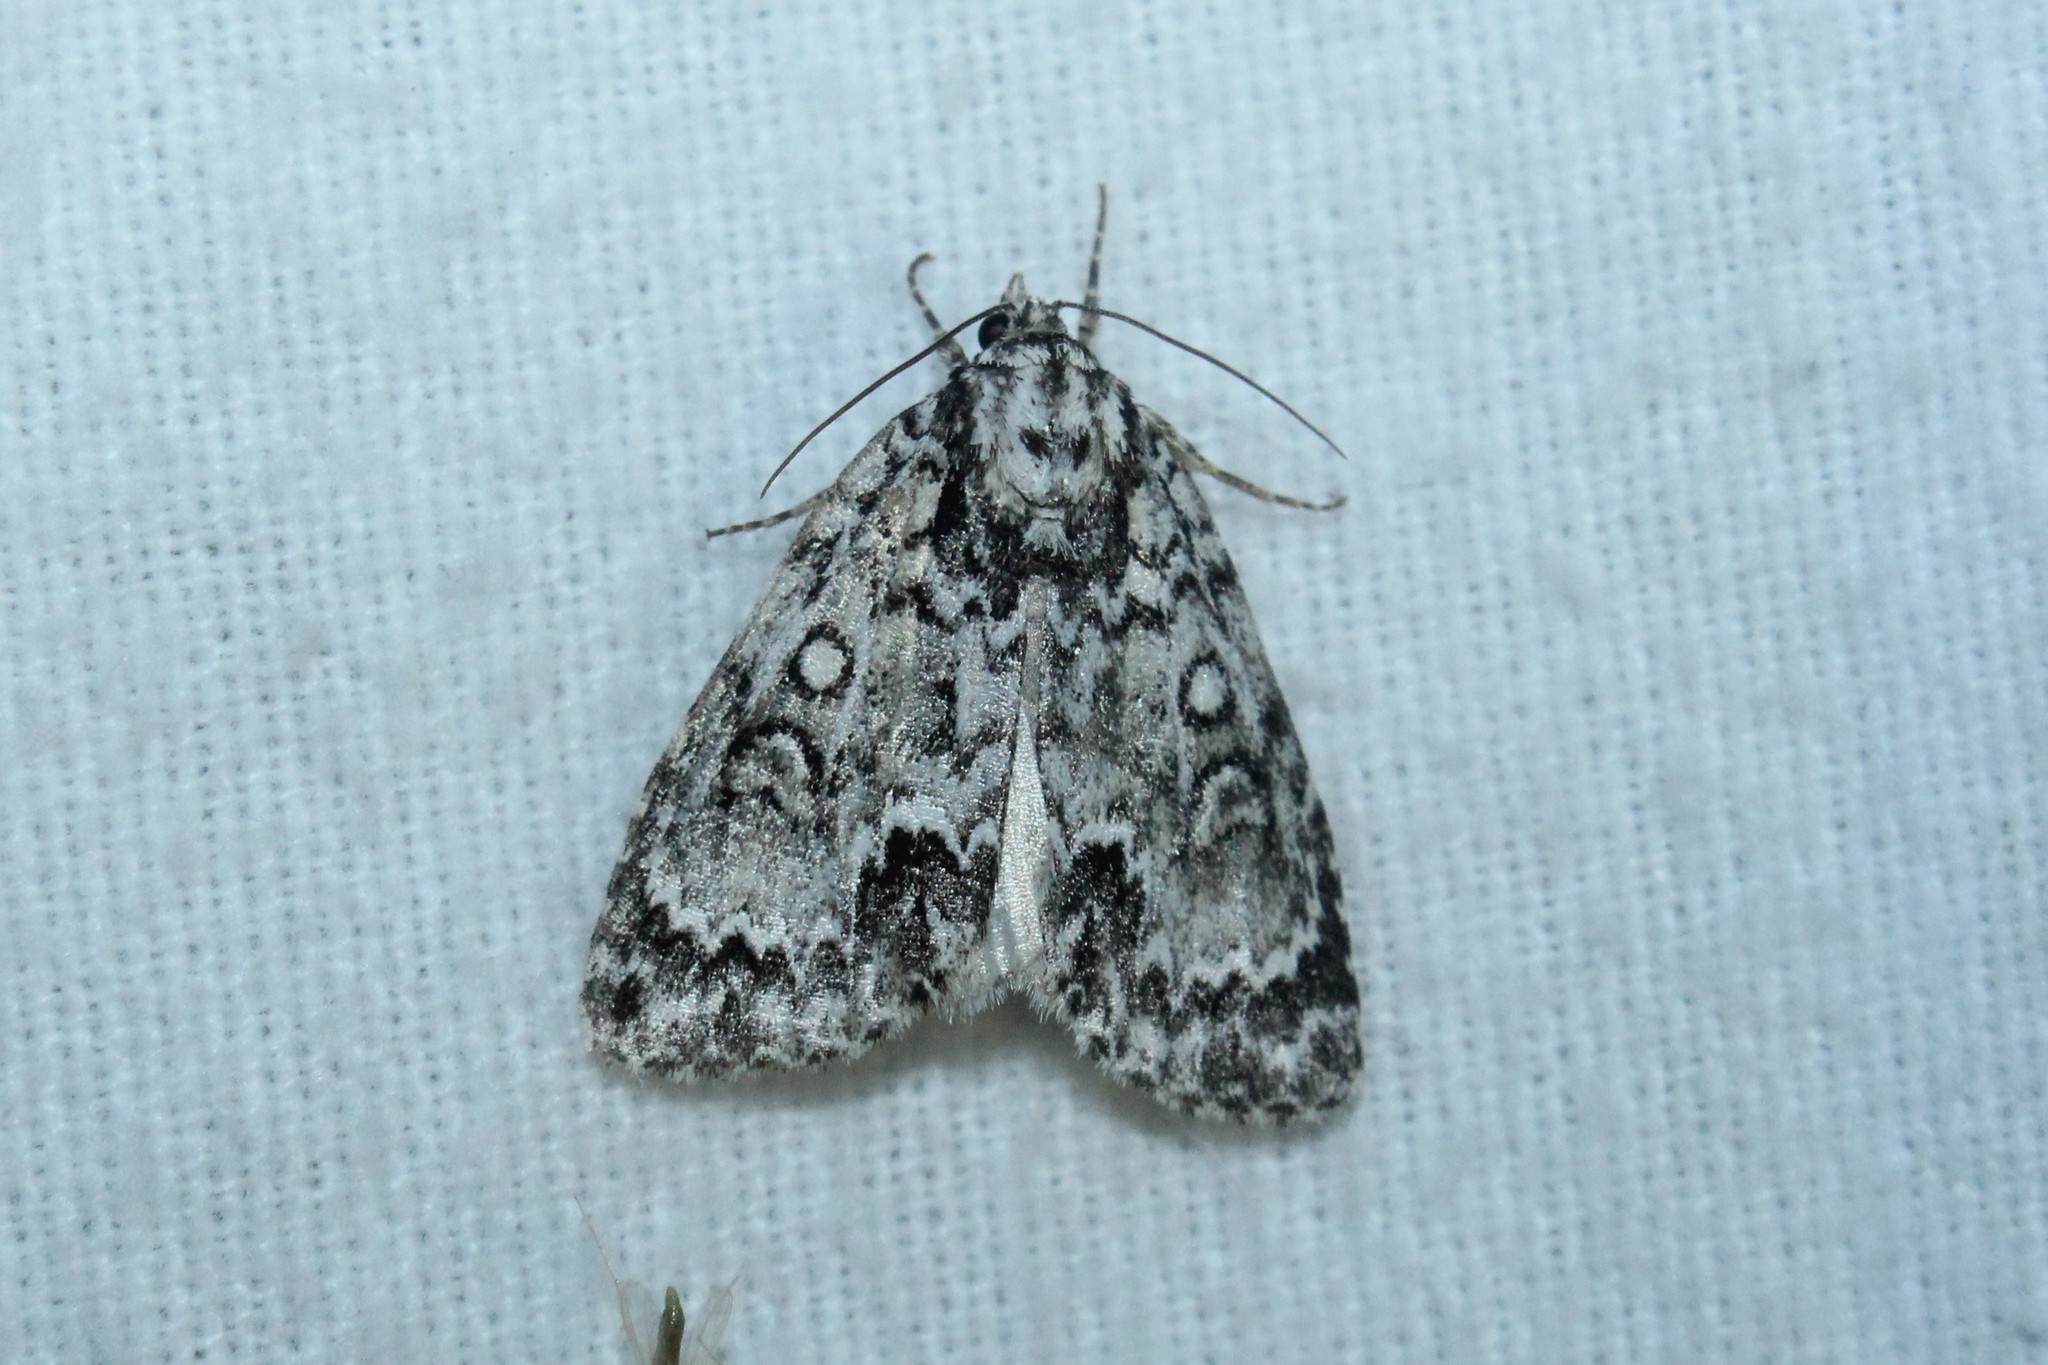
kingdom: Animalia
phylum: Arthropoda
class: Insecta
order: Lepidoptera
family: Noctuidae
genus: Acronicta
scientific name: Acronicta fragilis
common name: Fragile dagger
